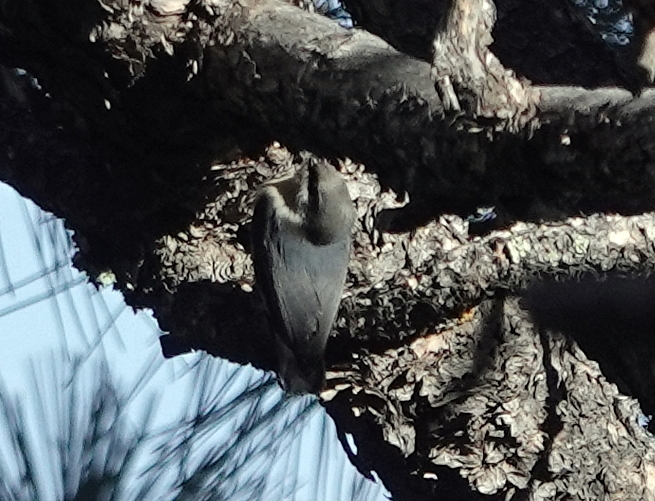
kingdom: Animalia
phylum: Chordata
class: Aves
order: Passeriformes
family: Sittidae
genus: Sitta
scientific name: Sitta pygmaea
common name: Pygmy nuthatch
